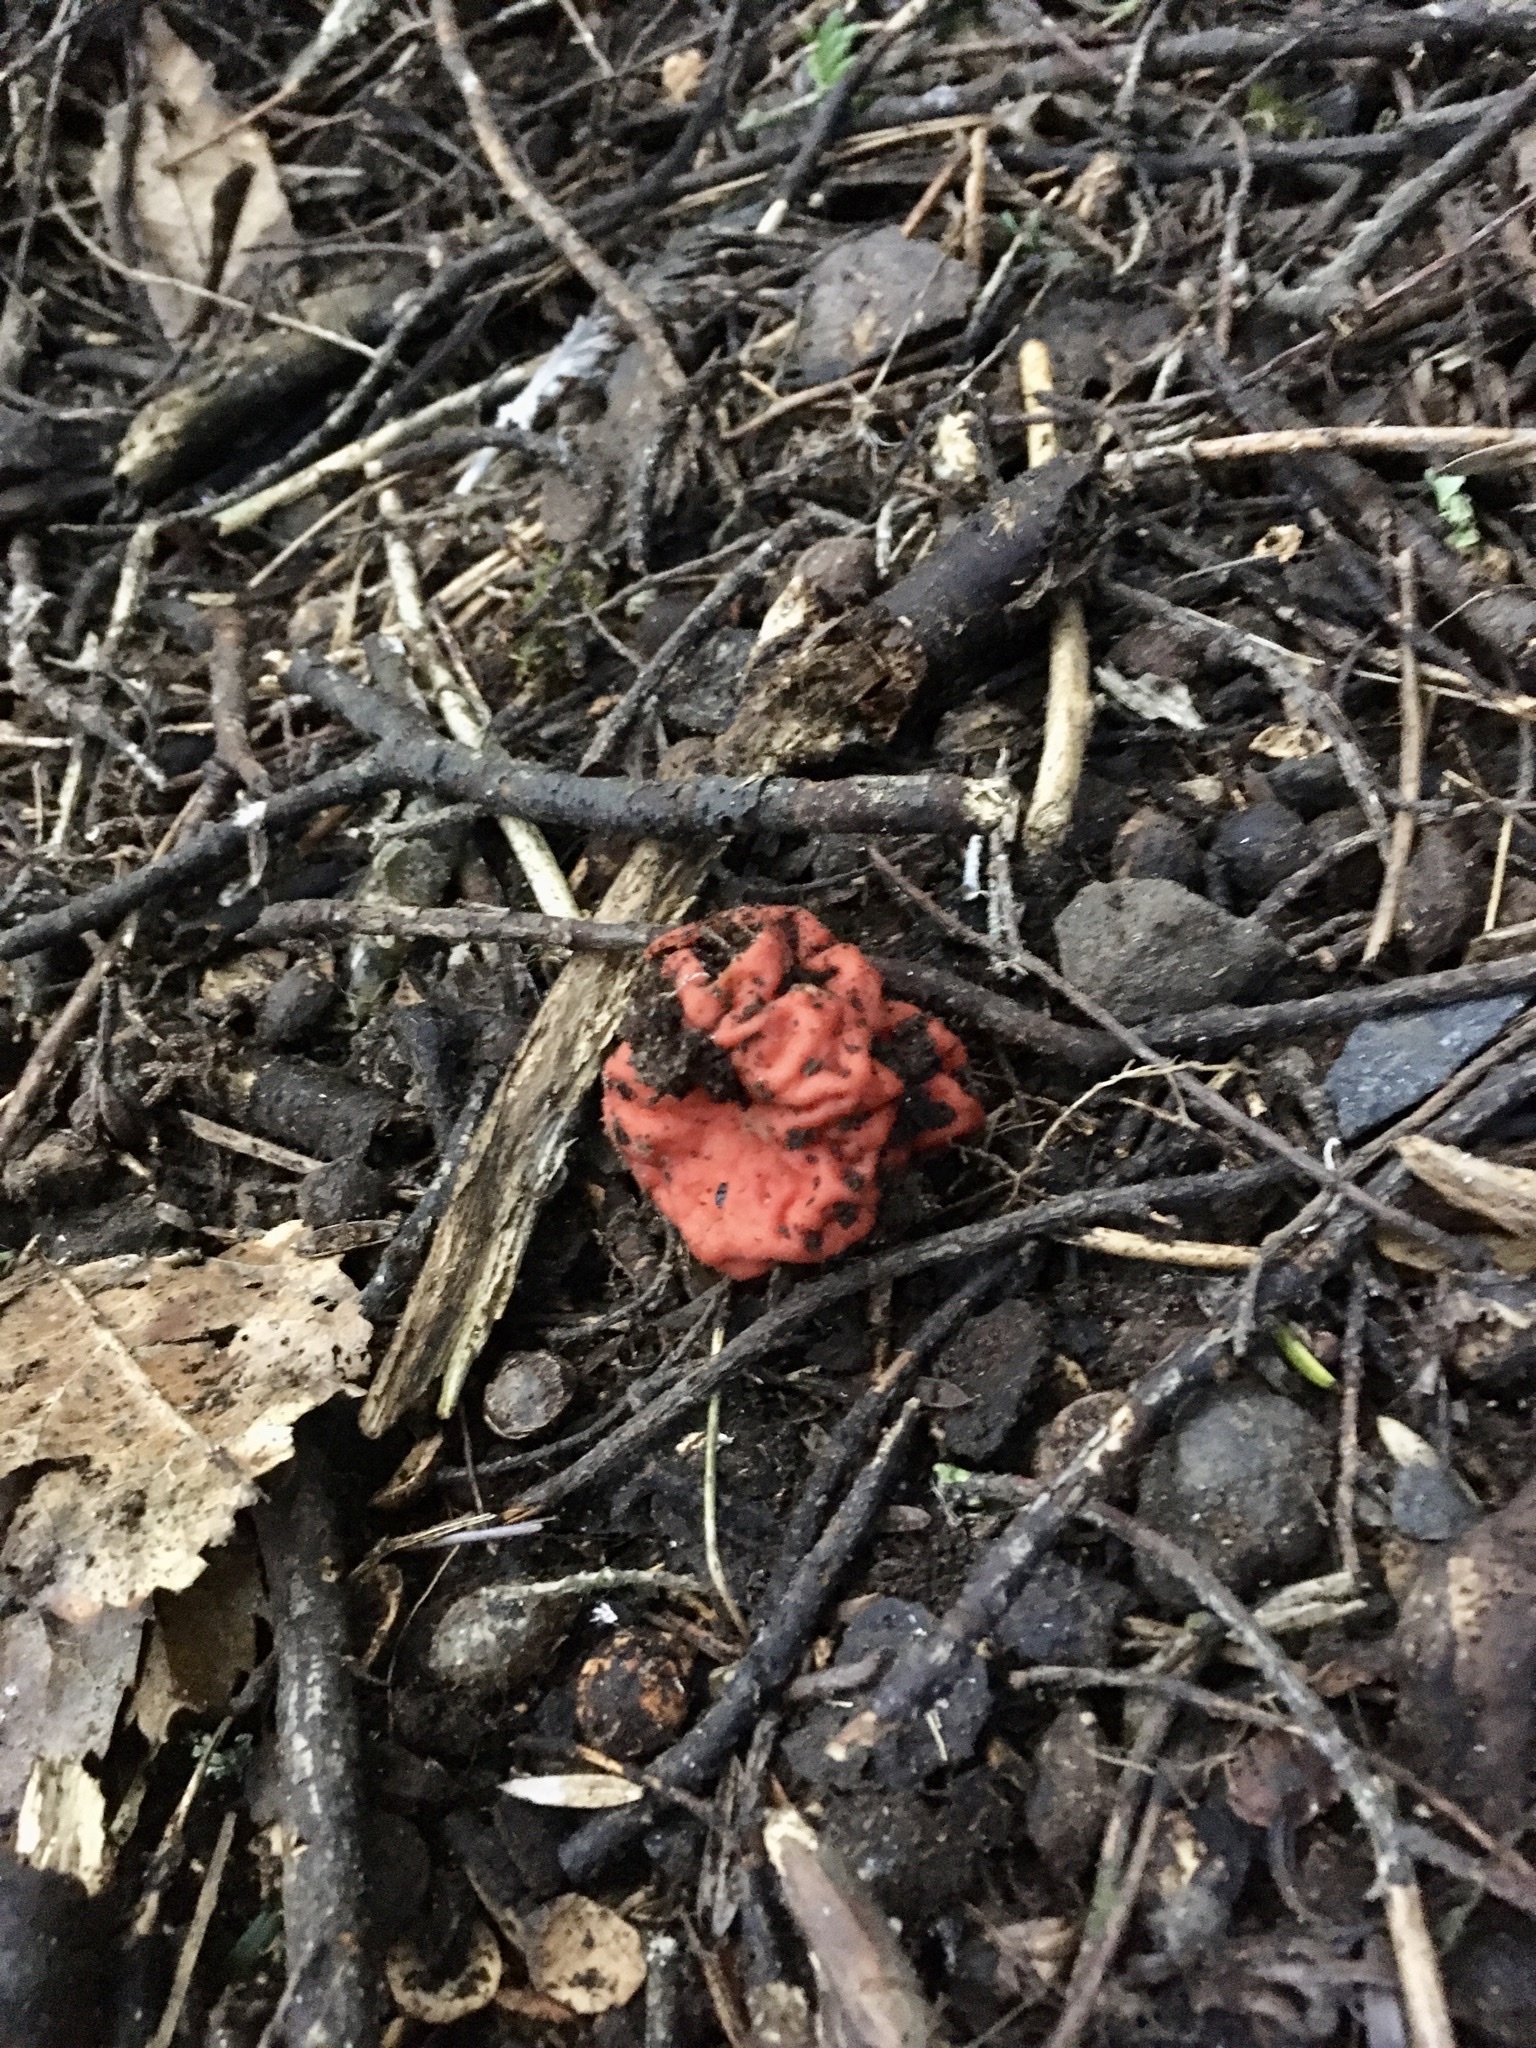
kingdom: Fungi
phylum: Ascomycota
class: Pezizomycetes
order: Pezizales
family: Pyronemataceae
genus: Paurocotylis
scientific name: Paurocotylis pila
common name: Scarlet berry truffle
